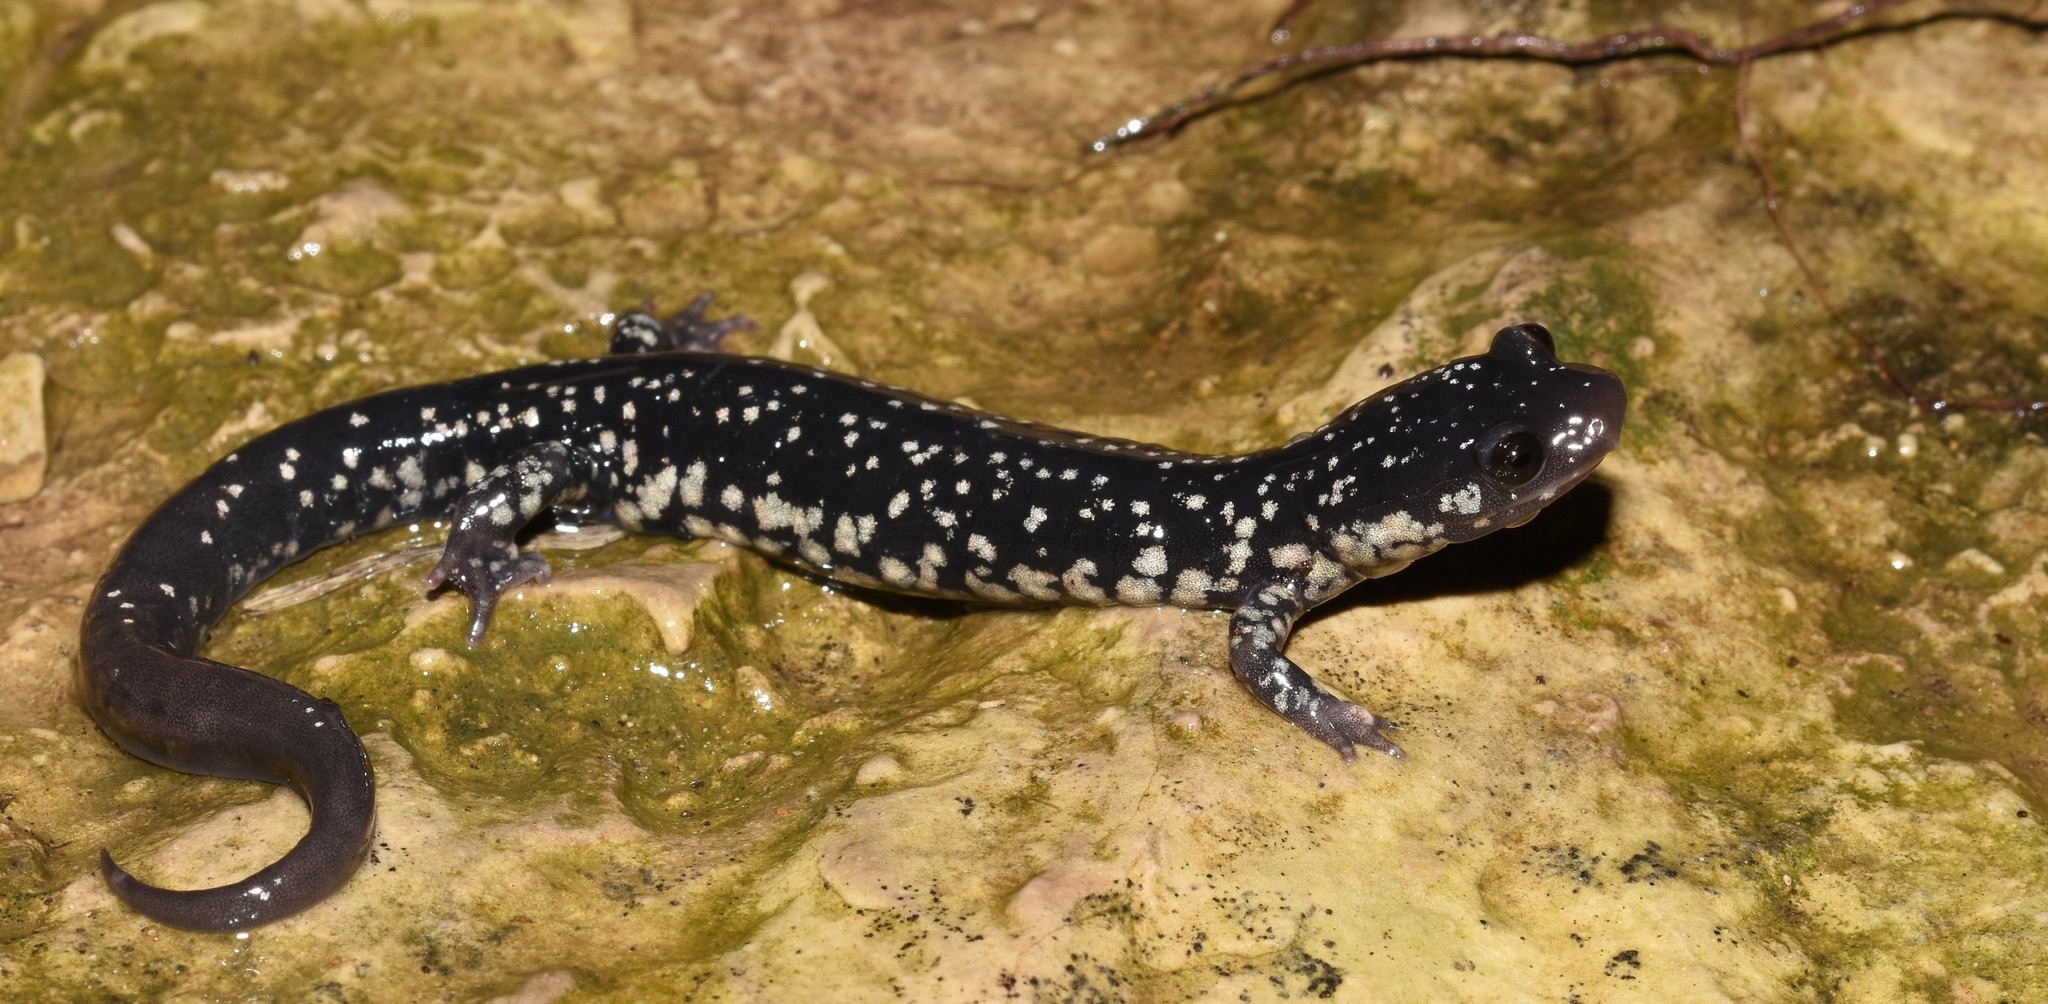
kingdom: Animalia
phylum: Chordata
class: Amphibia
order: Caudata
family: Plethodontidae
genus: Plethodon
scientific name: Plethodon albagula
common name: Western slimy salamander
